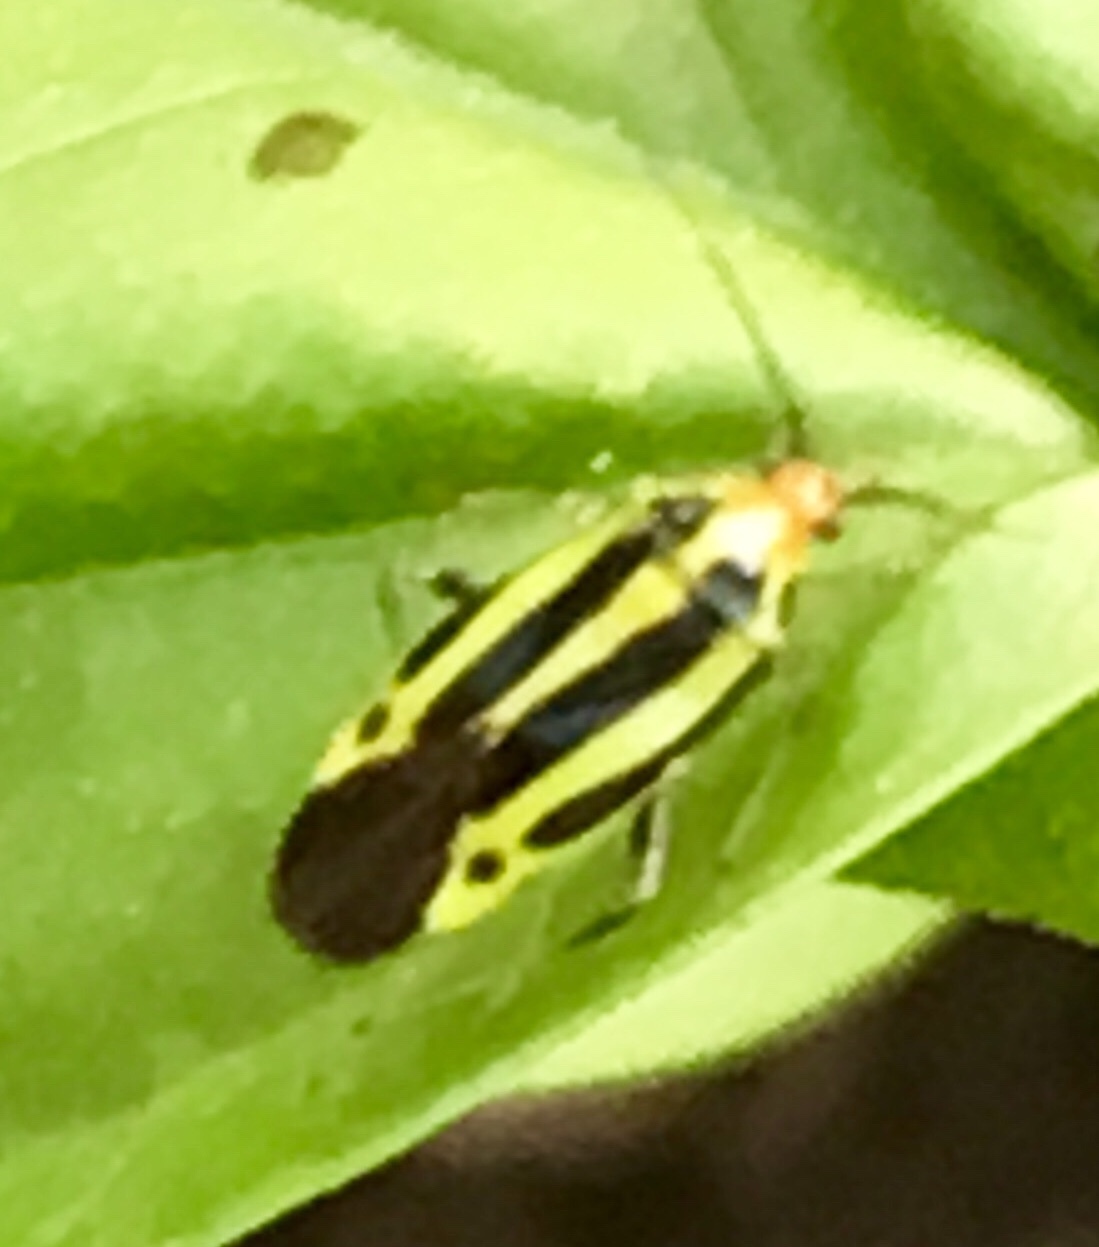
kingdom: Animalia
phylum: Arthropoda
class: Insecta
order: Hemiptera
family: Miridae
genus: Poecilocapsus
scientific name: Poecilocapsus lineatus
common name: Four-lined plant bug
